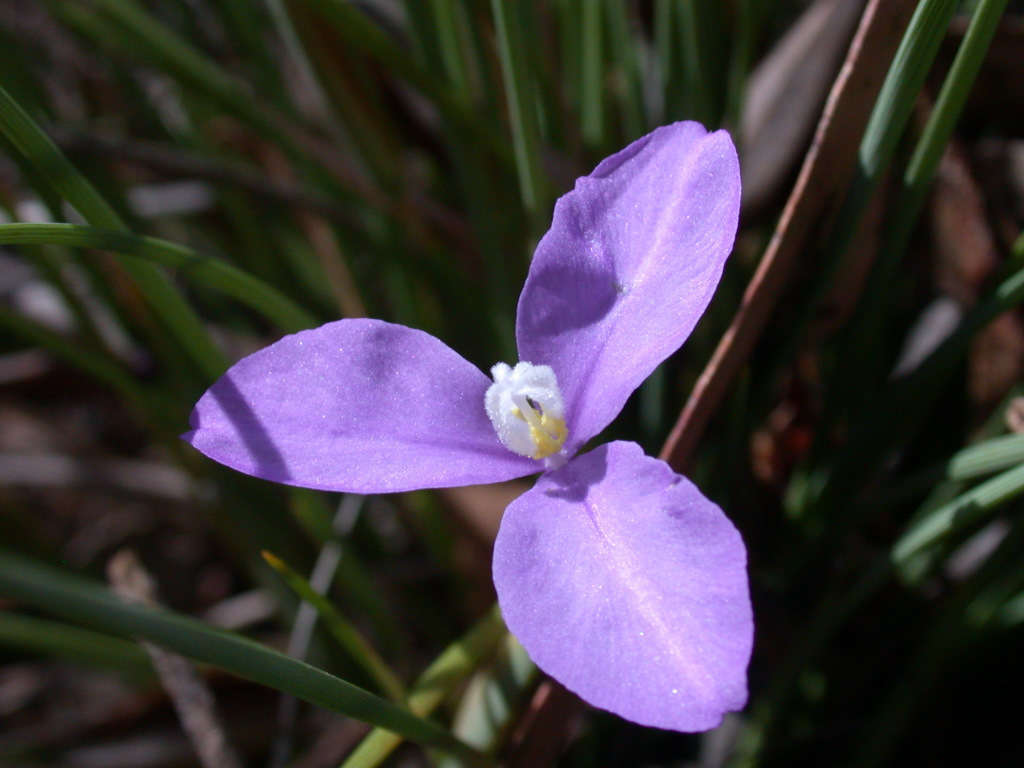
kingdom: Plantae
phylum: Tracheophyta
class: Liliopsida
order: Asparagales
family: Iridaceae
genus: Patersonia
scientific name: Patersonia fragilis
